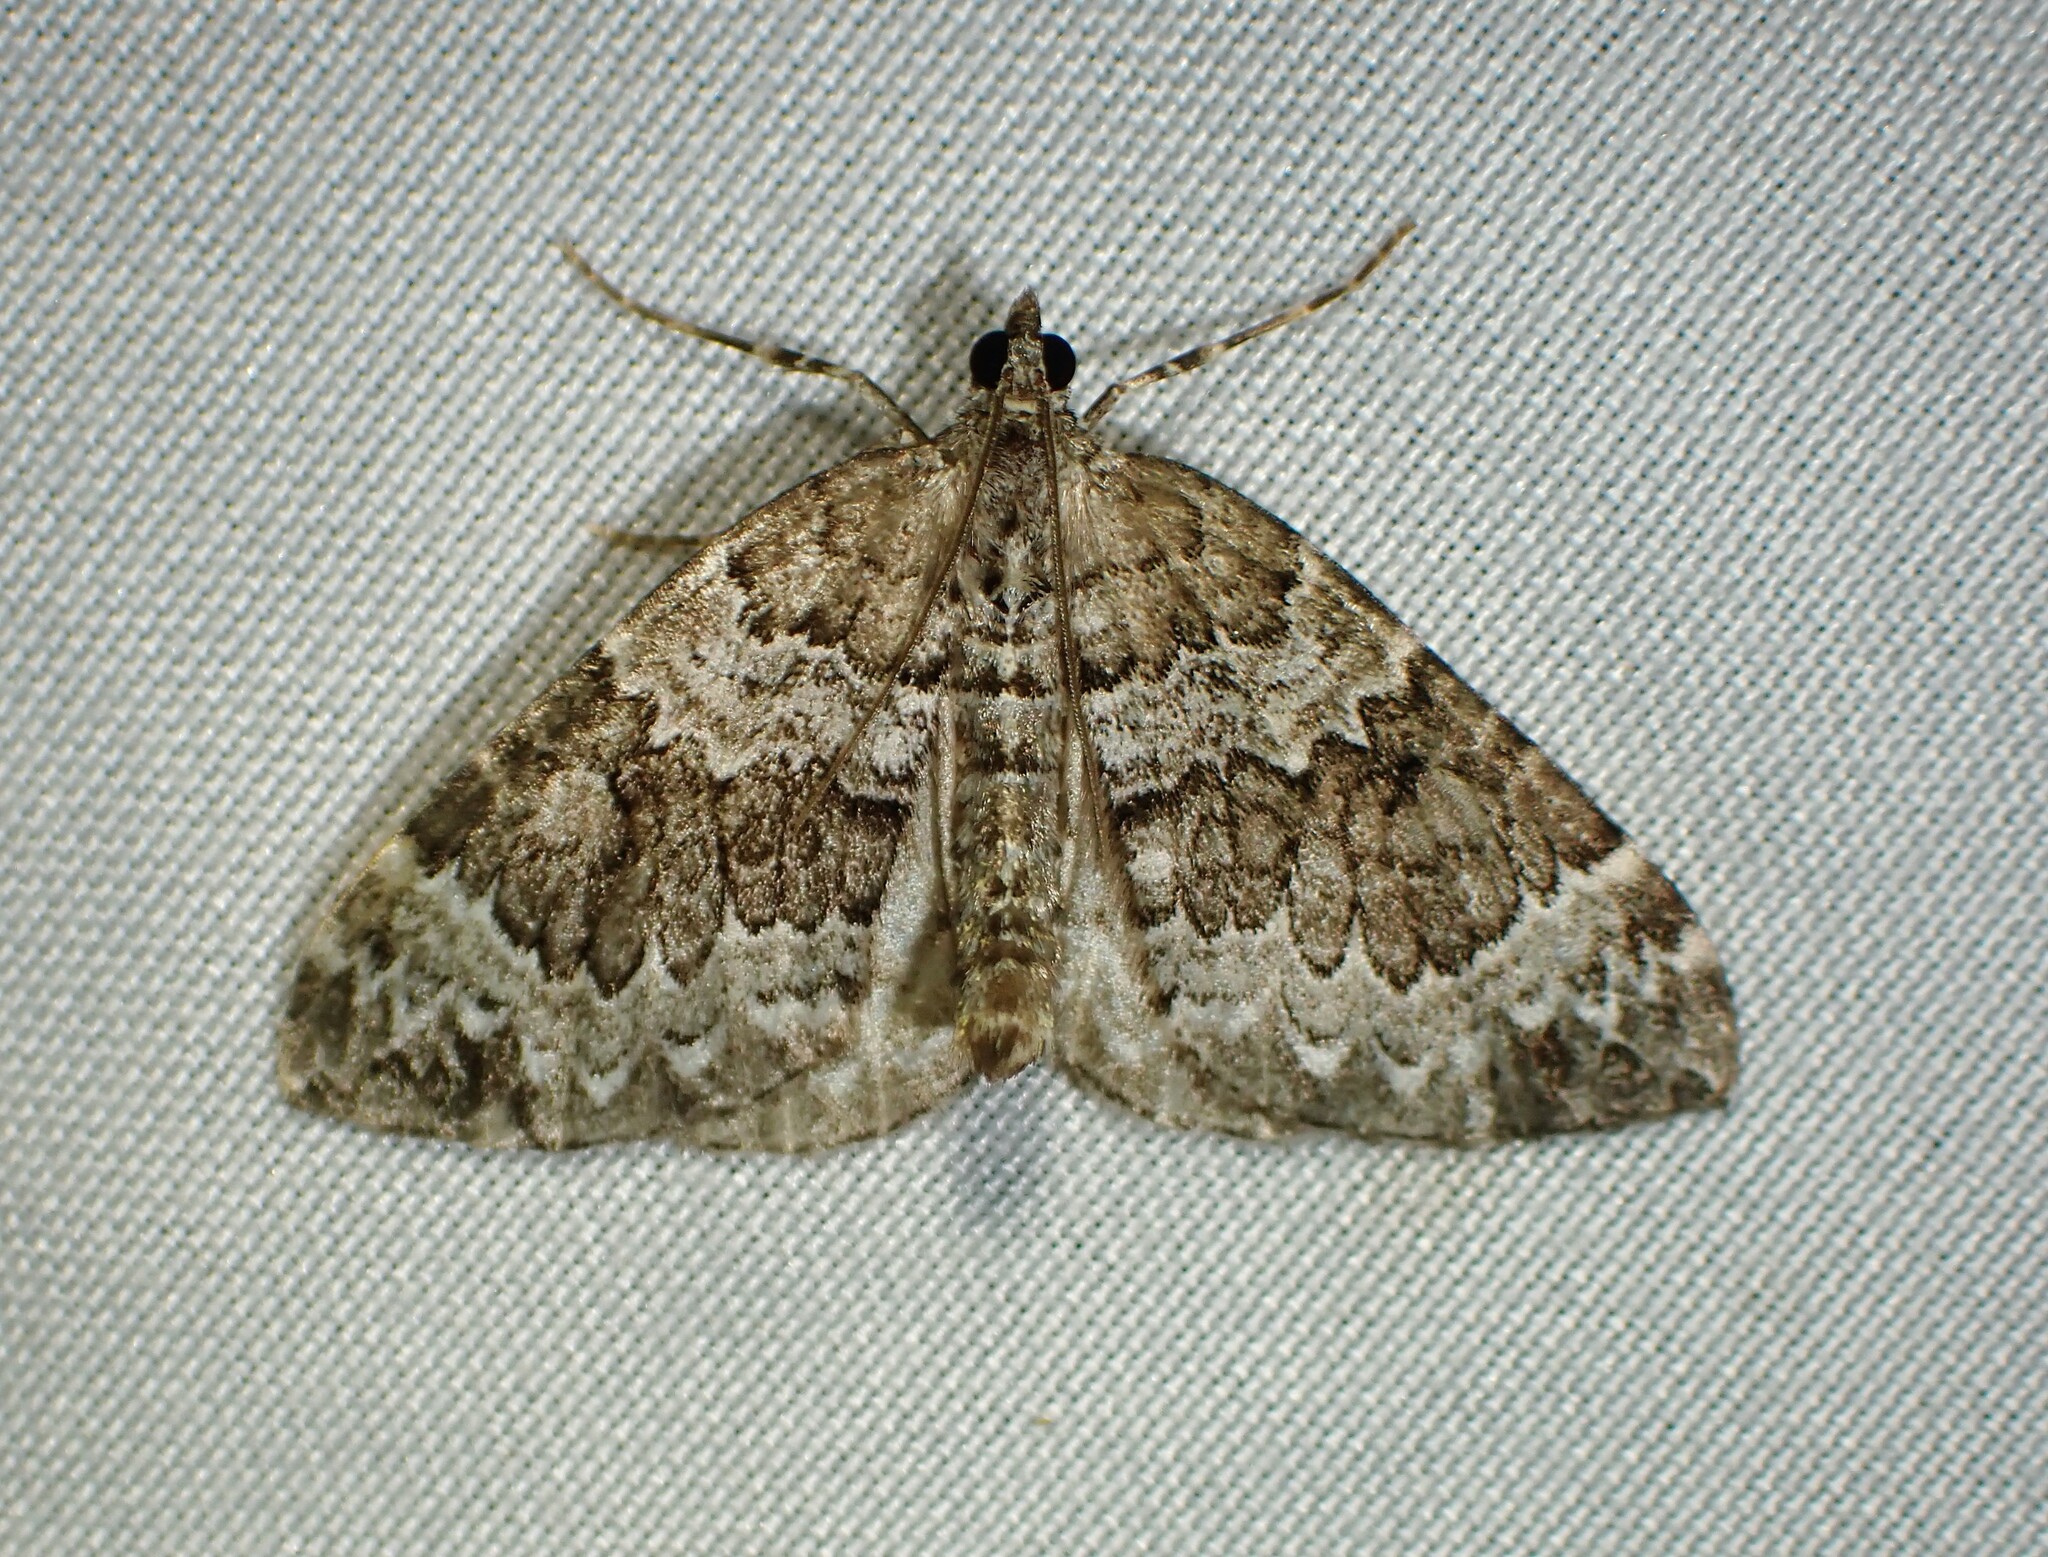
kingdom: Animalia
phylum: Arthropoda
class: Insecta
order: Lepidoptera
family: Geometridae
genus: Eulithis
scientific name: Eulithis explanata
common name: White eulithis
